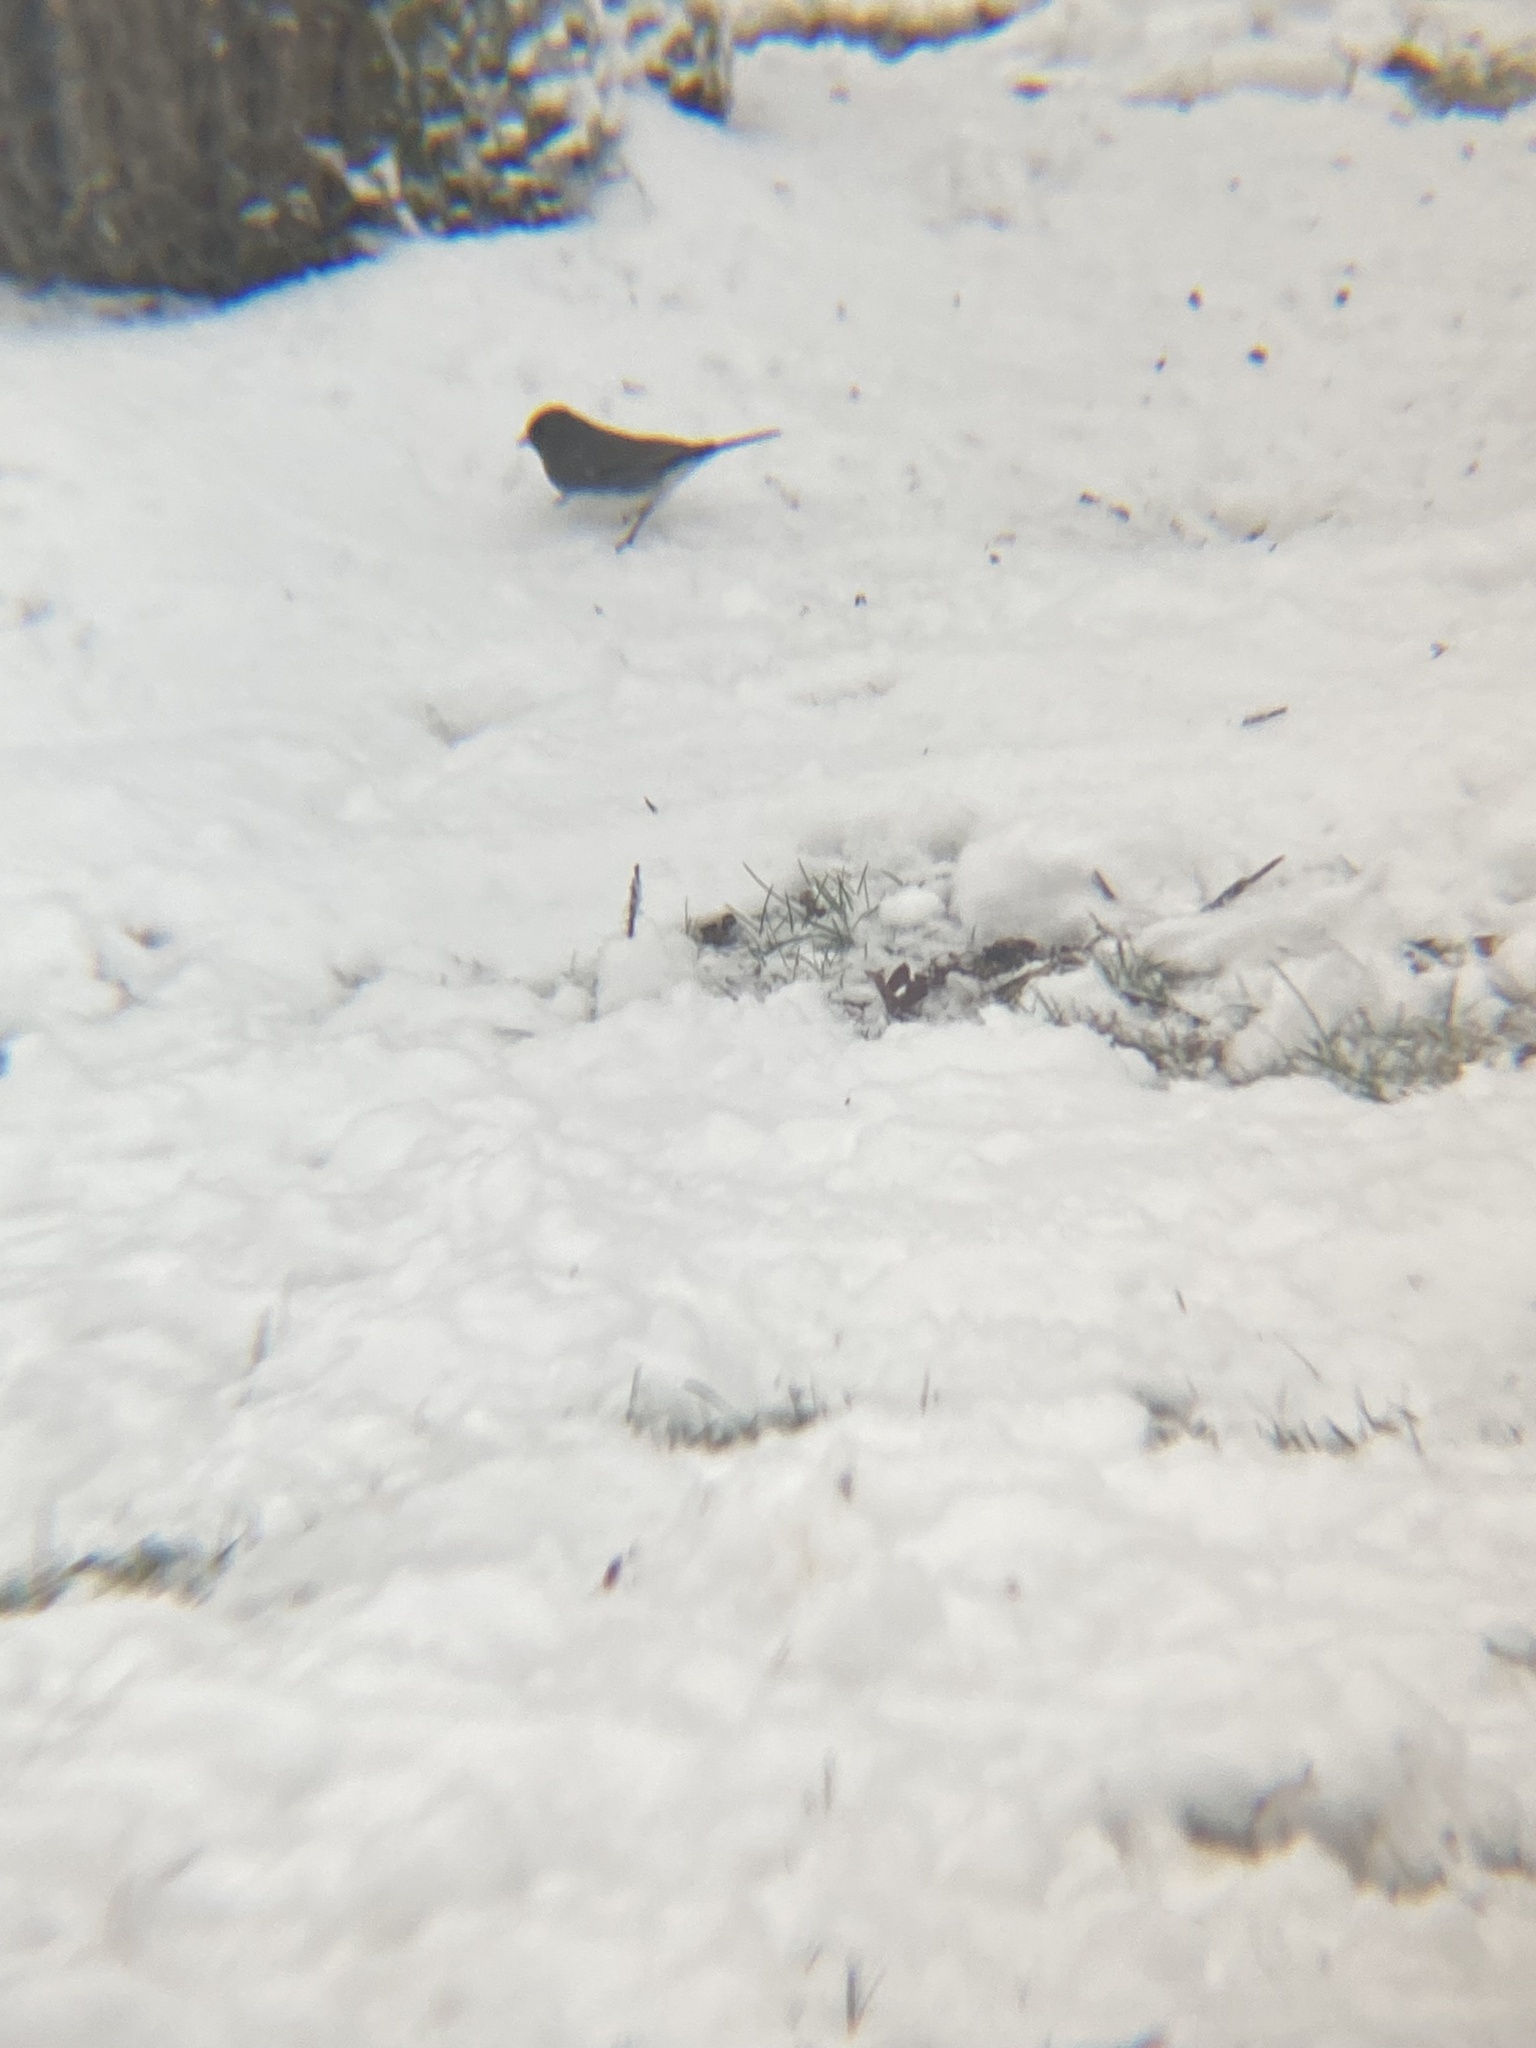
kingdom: Animalia
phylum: Chordata
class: Aves
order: Passeriformes
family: Passerellidae
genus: Junco
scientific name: Junco hyemalis
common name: Dark-eyed junco
